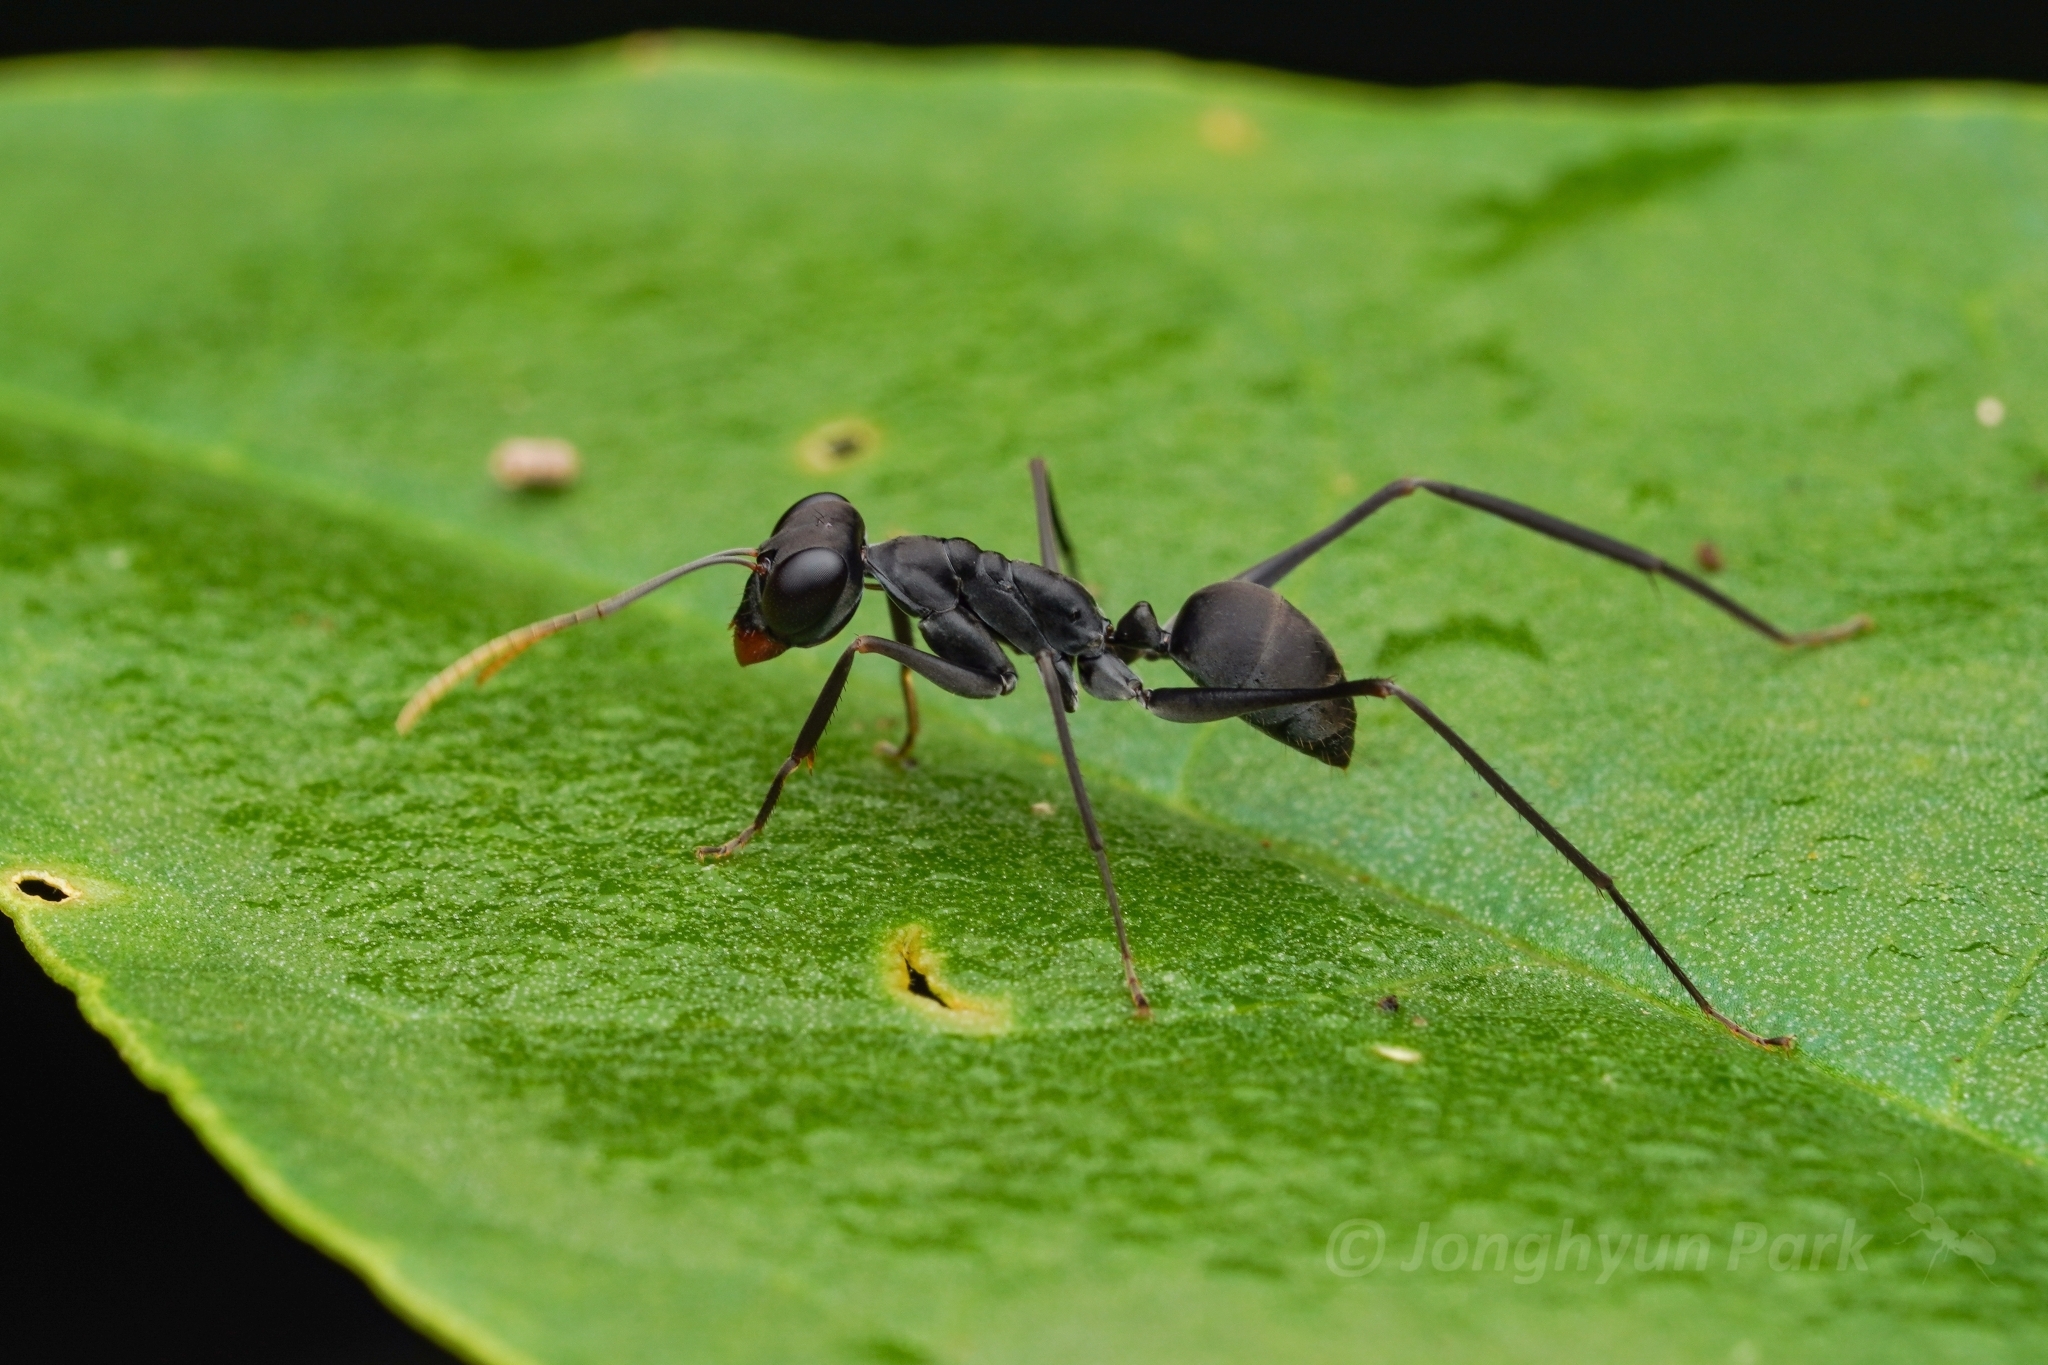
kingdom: Animalia
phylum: Arthropoda
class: Insecta
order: Hymenoptera
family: Formicidae
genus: Gigantiops
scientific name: Gigantiops destructor
